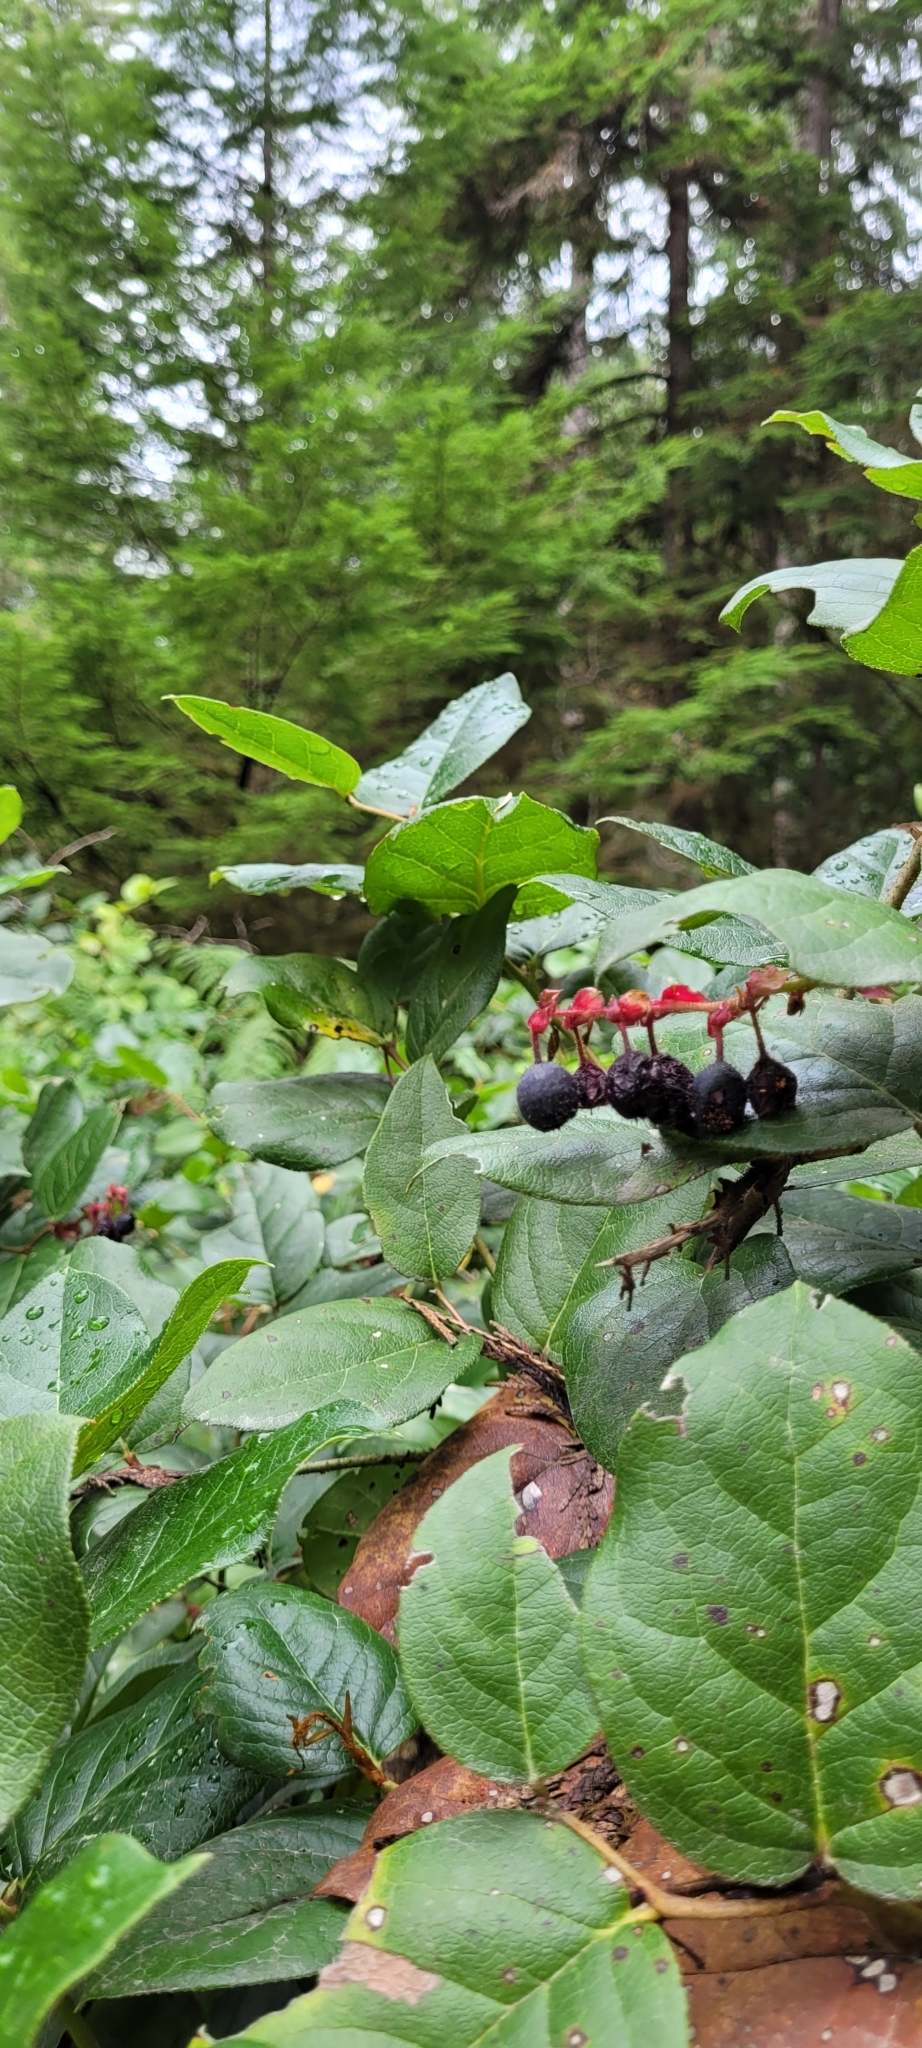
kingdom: Plantae
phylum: Tracheophyta
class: Magnoliopsida
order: Ericales
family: Ericaceae
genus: Gaultheria
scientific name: Gaultheria shallon
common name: Shallon
